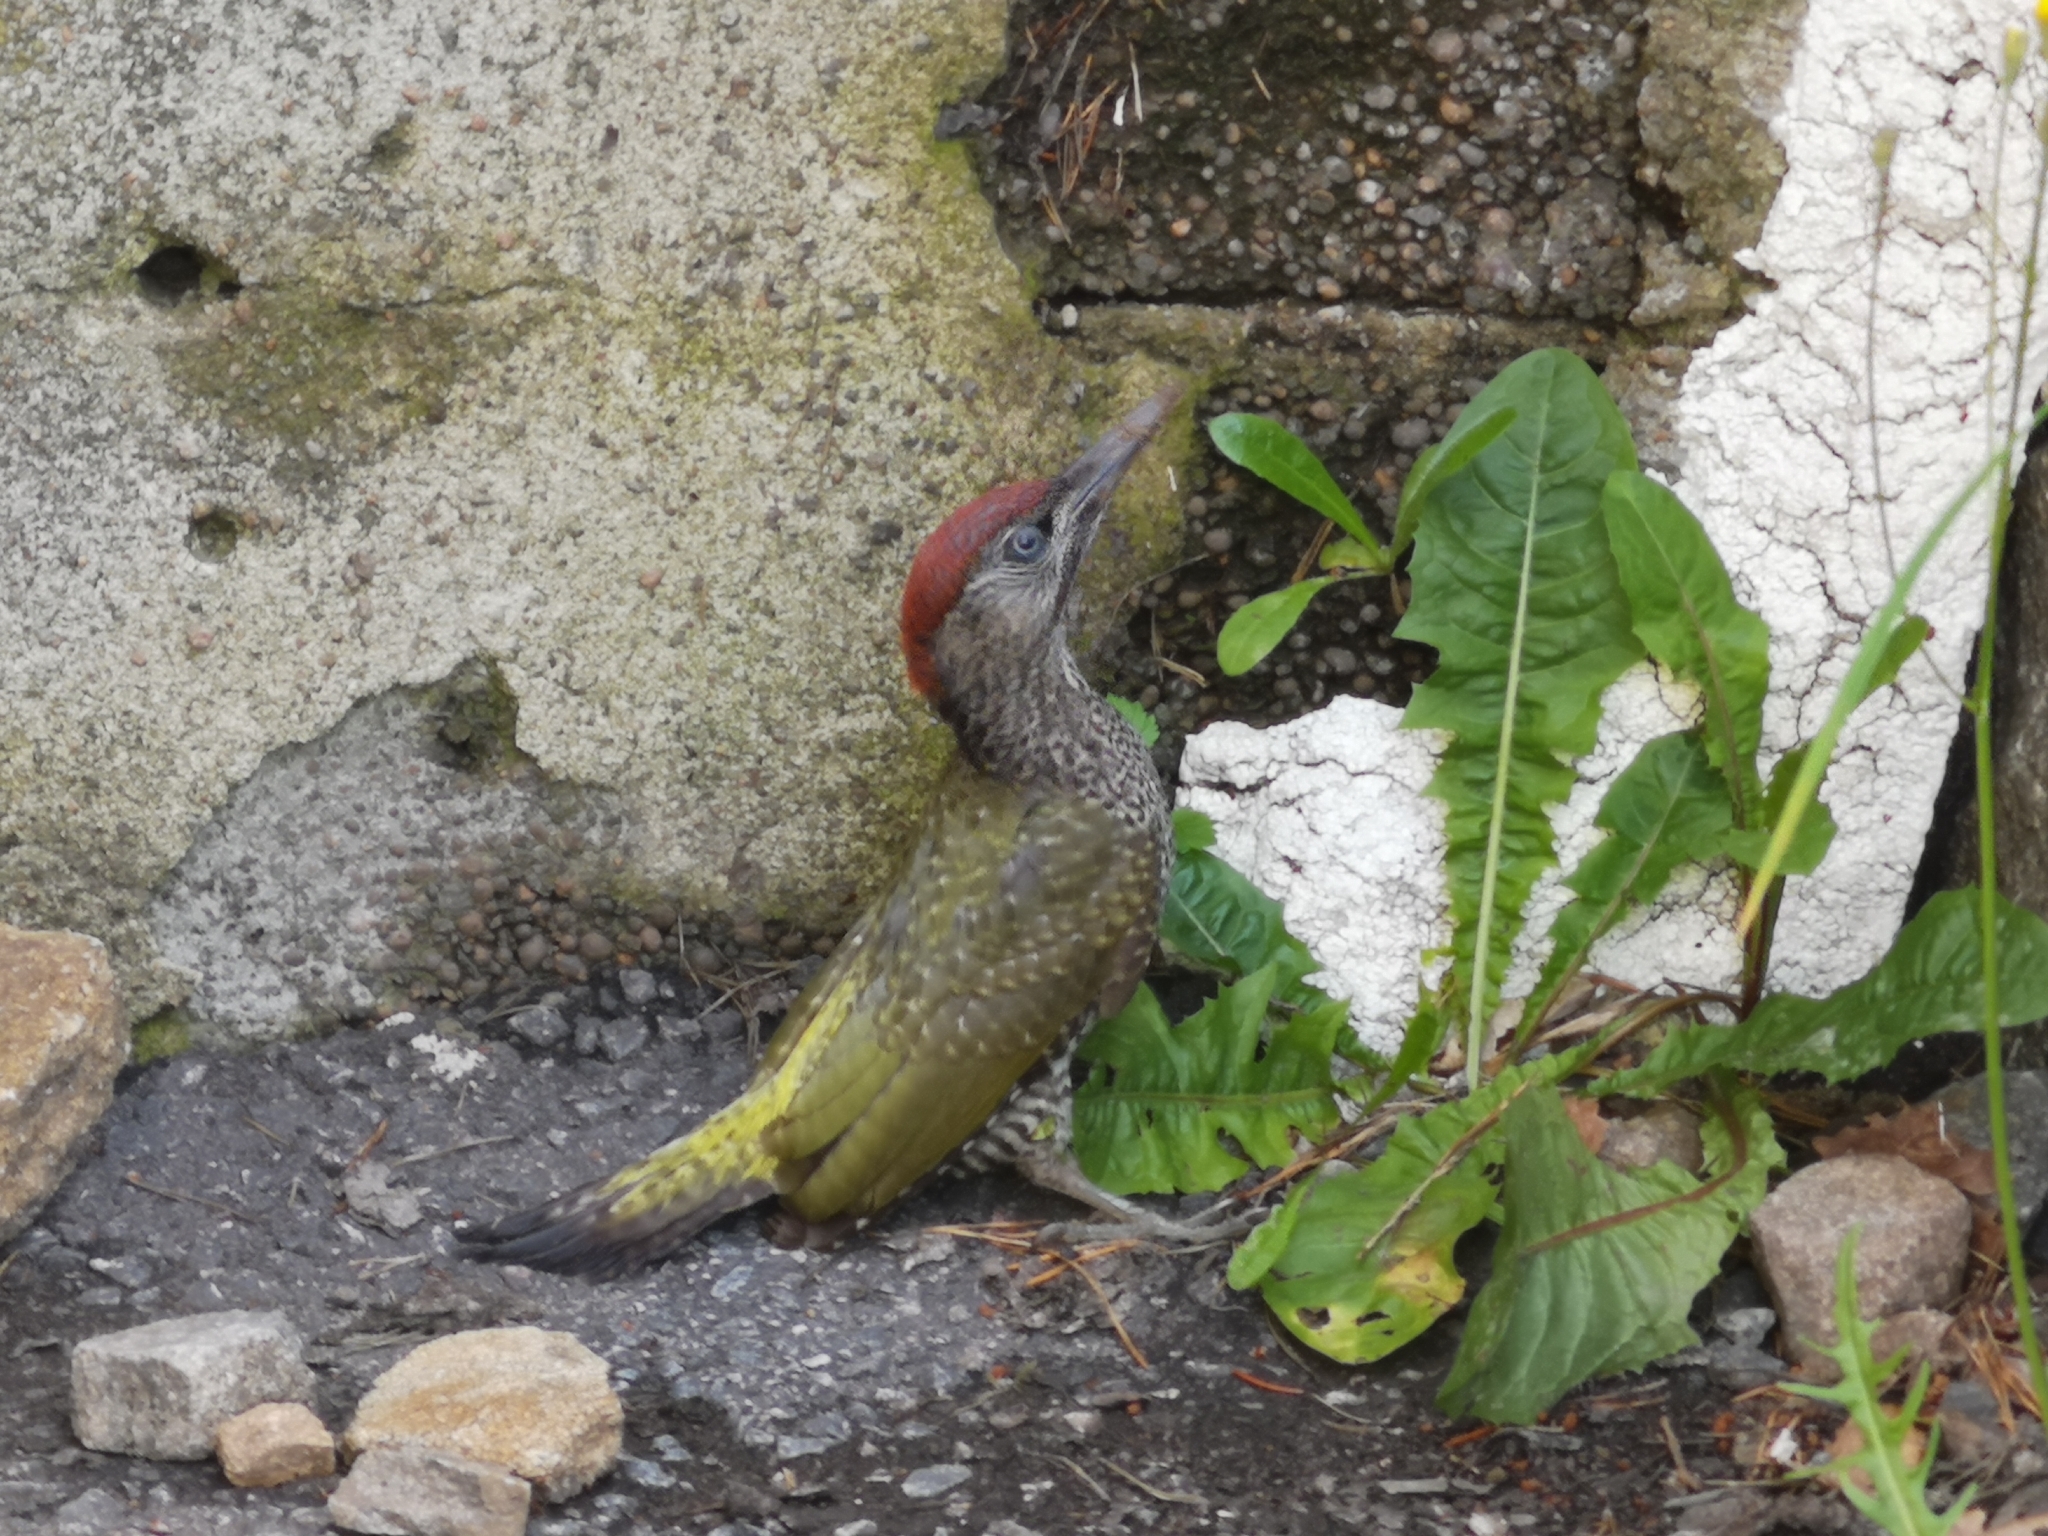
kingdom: Animalia
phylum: Chordata
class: Aves
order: Piciformes
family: Picidae
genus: Picus
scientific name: Picus viridis
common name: European green woodpecker
